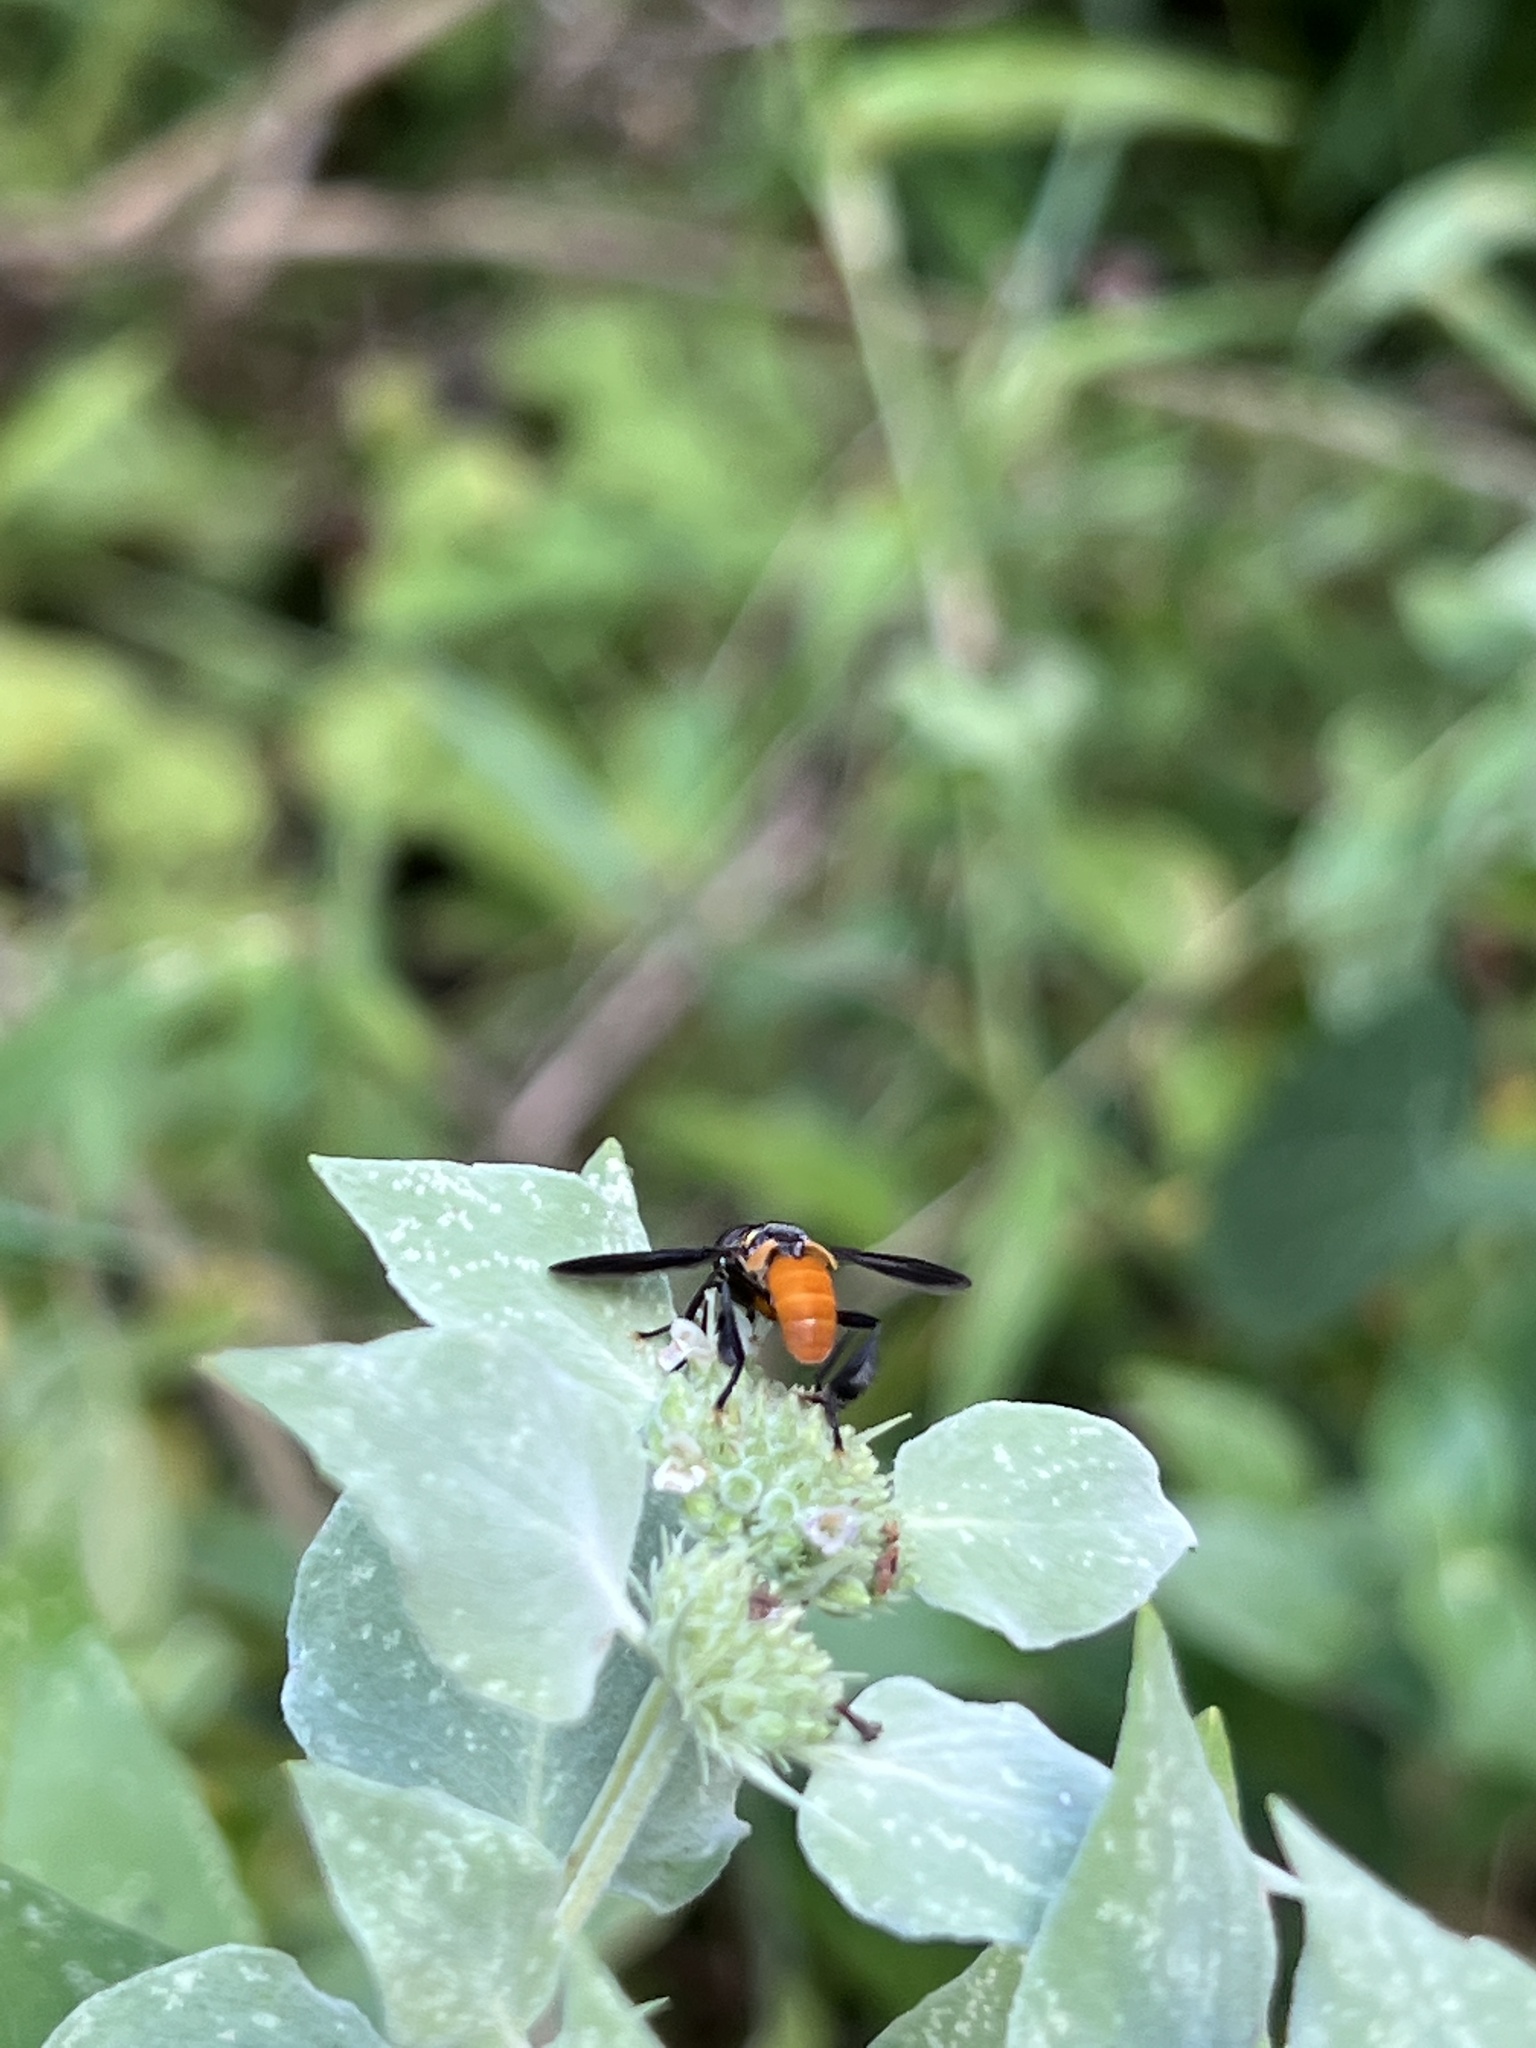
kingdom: Animalia
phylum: Arthropoda
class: Insecta
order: Diptera
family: Tachinidae
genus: Trichopoda
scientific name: Trichopoda pennipes
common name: Tachinid fly
